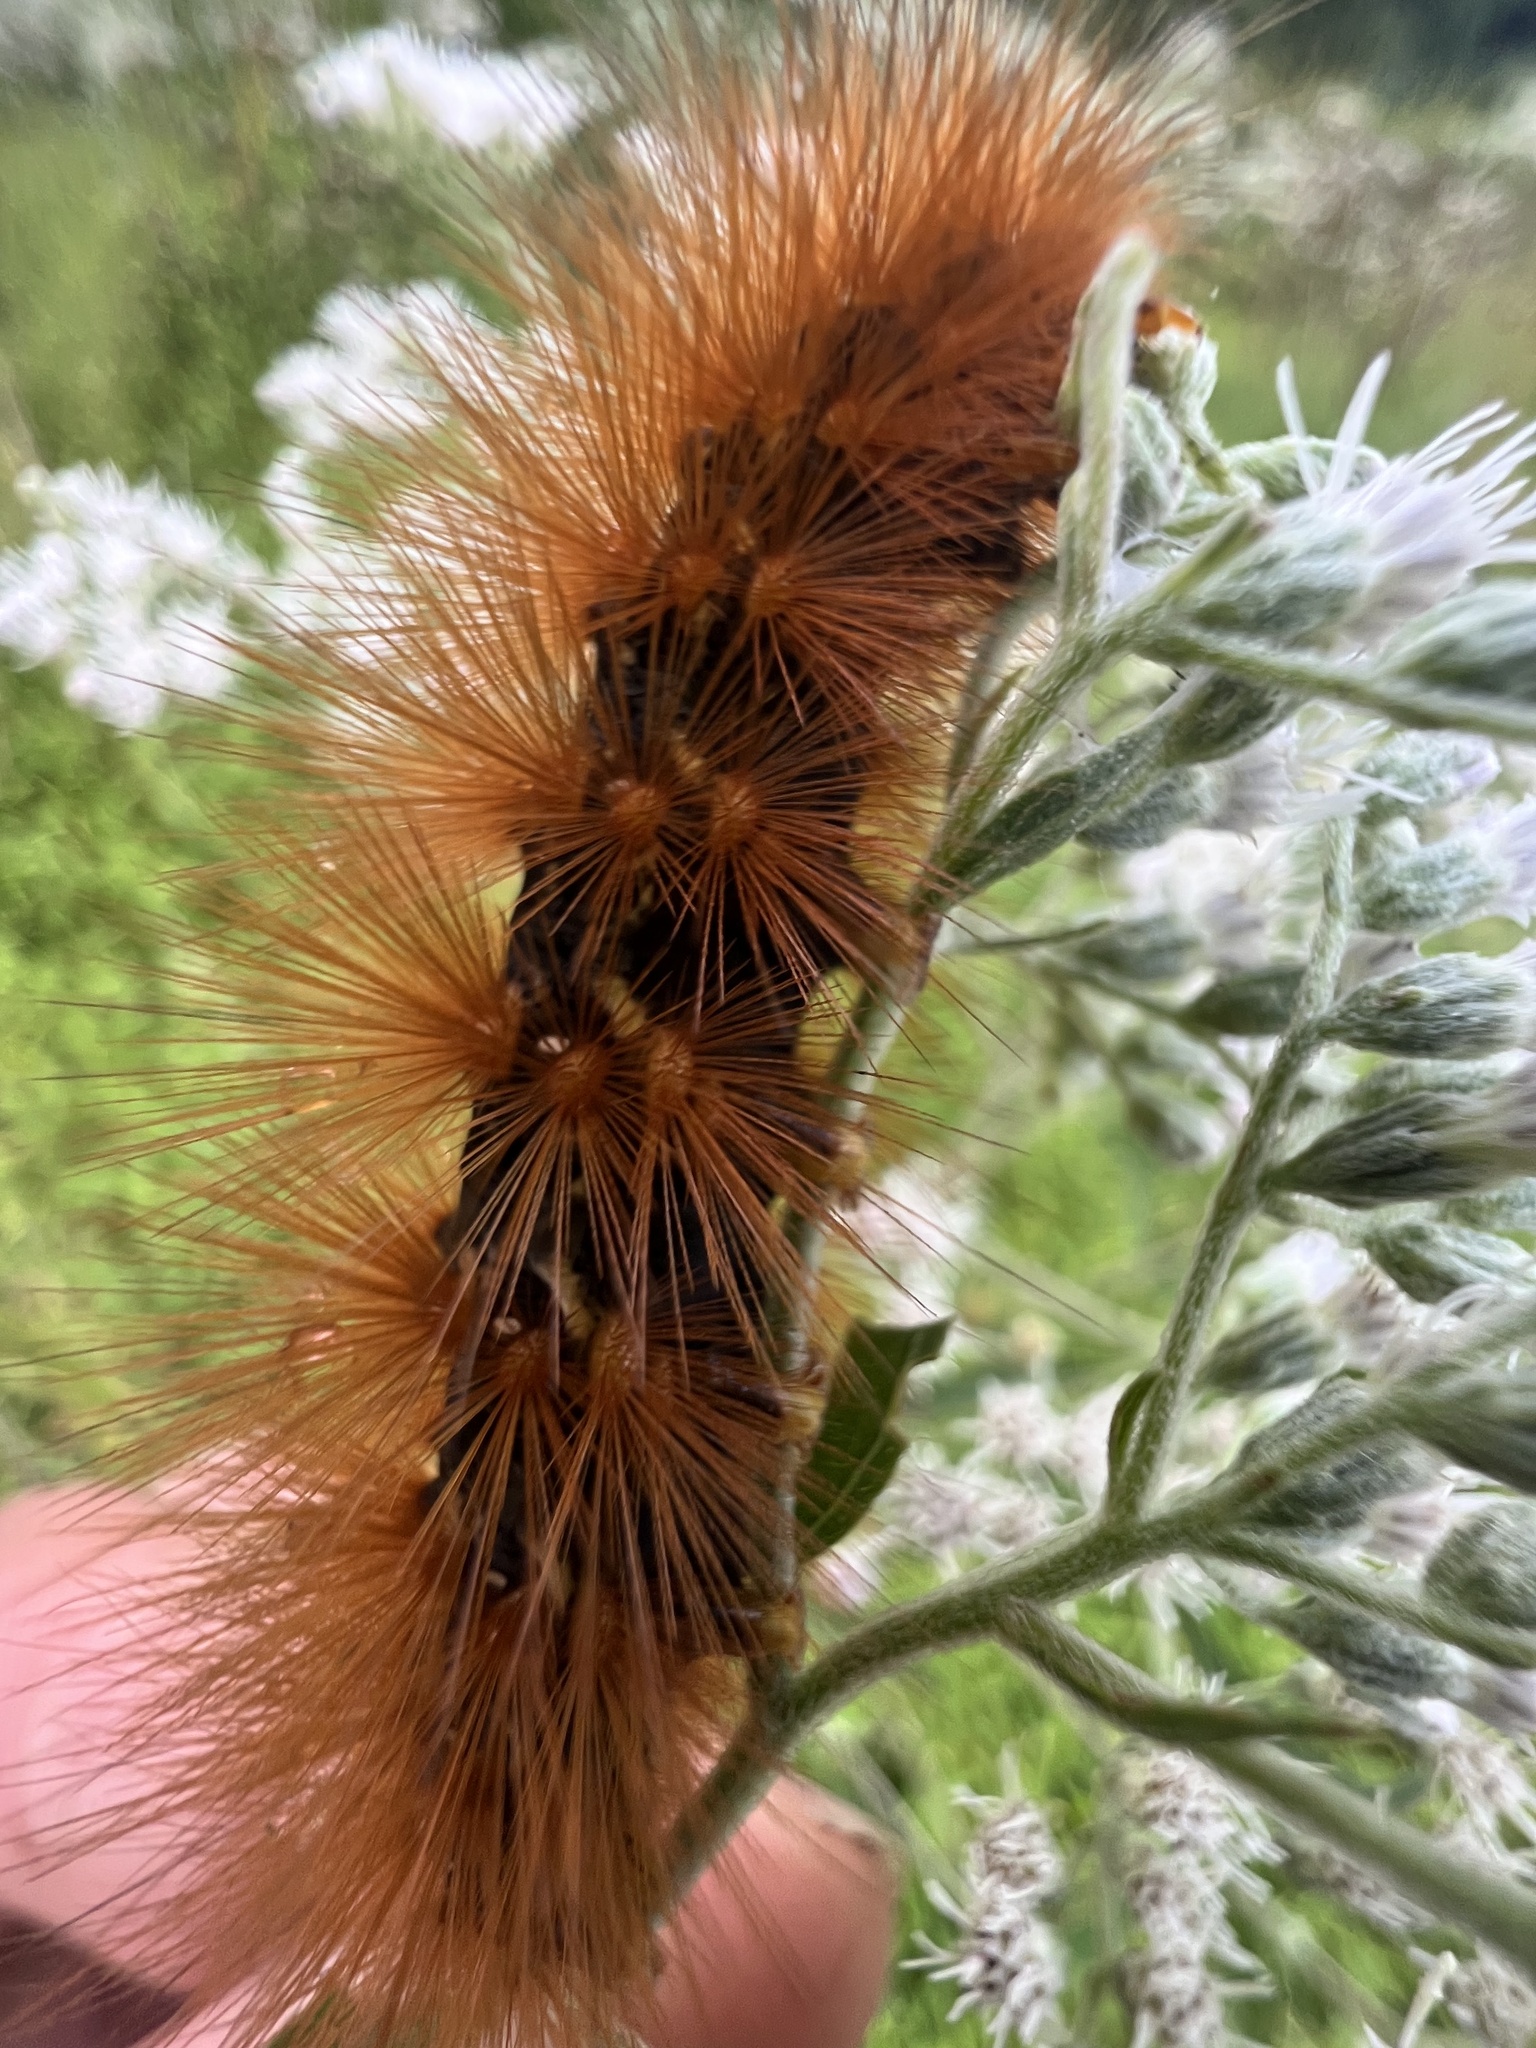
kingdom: Animalia
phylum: Arthropoda
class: Insecta
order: Lepidoptera
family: Erebidae
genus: Estigmene
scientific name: Estigmene acrea
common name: Salt marsh moth
